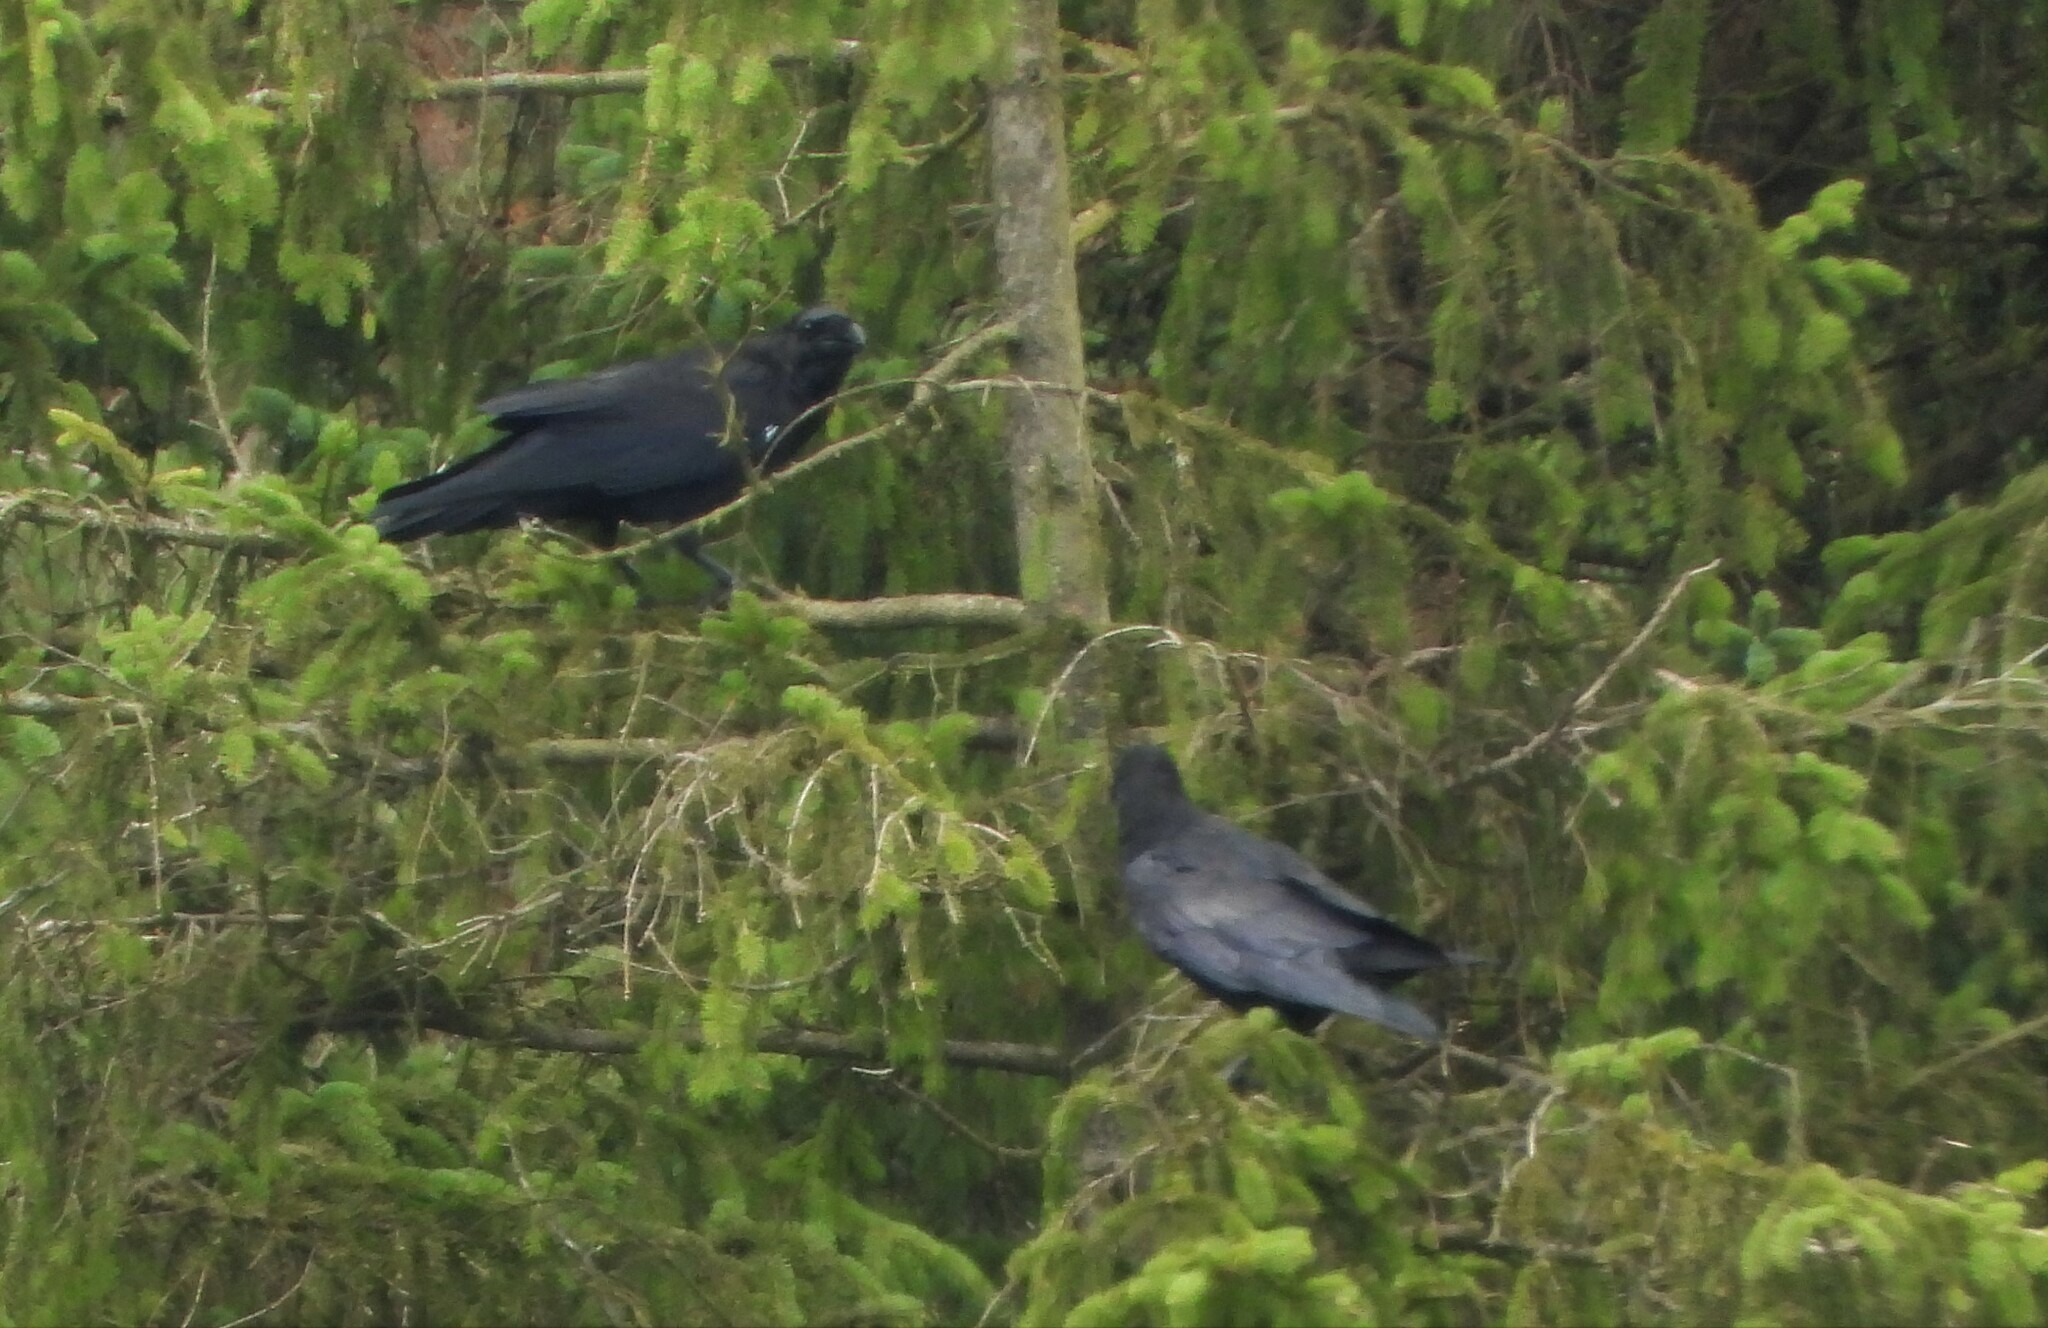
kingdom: Animalia
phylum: Chordata
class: Aves
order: Passeriformes
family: Corvidae
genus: Corvus
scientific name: Corvus corax
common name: Common raven
